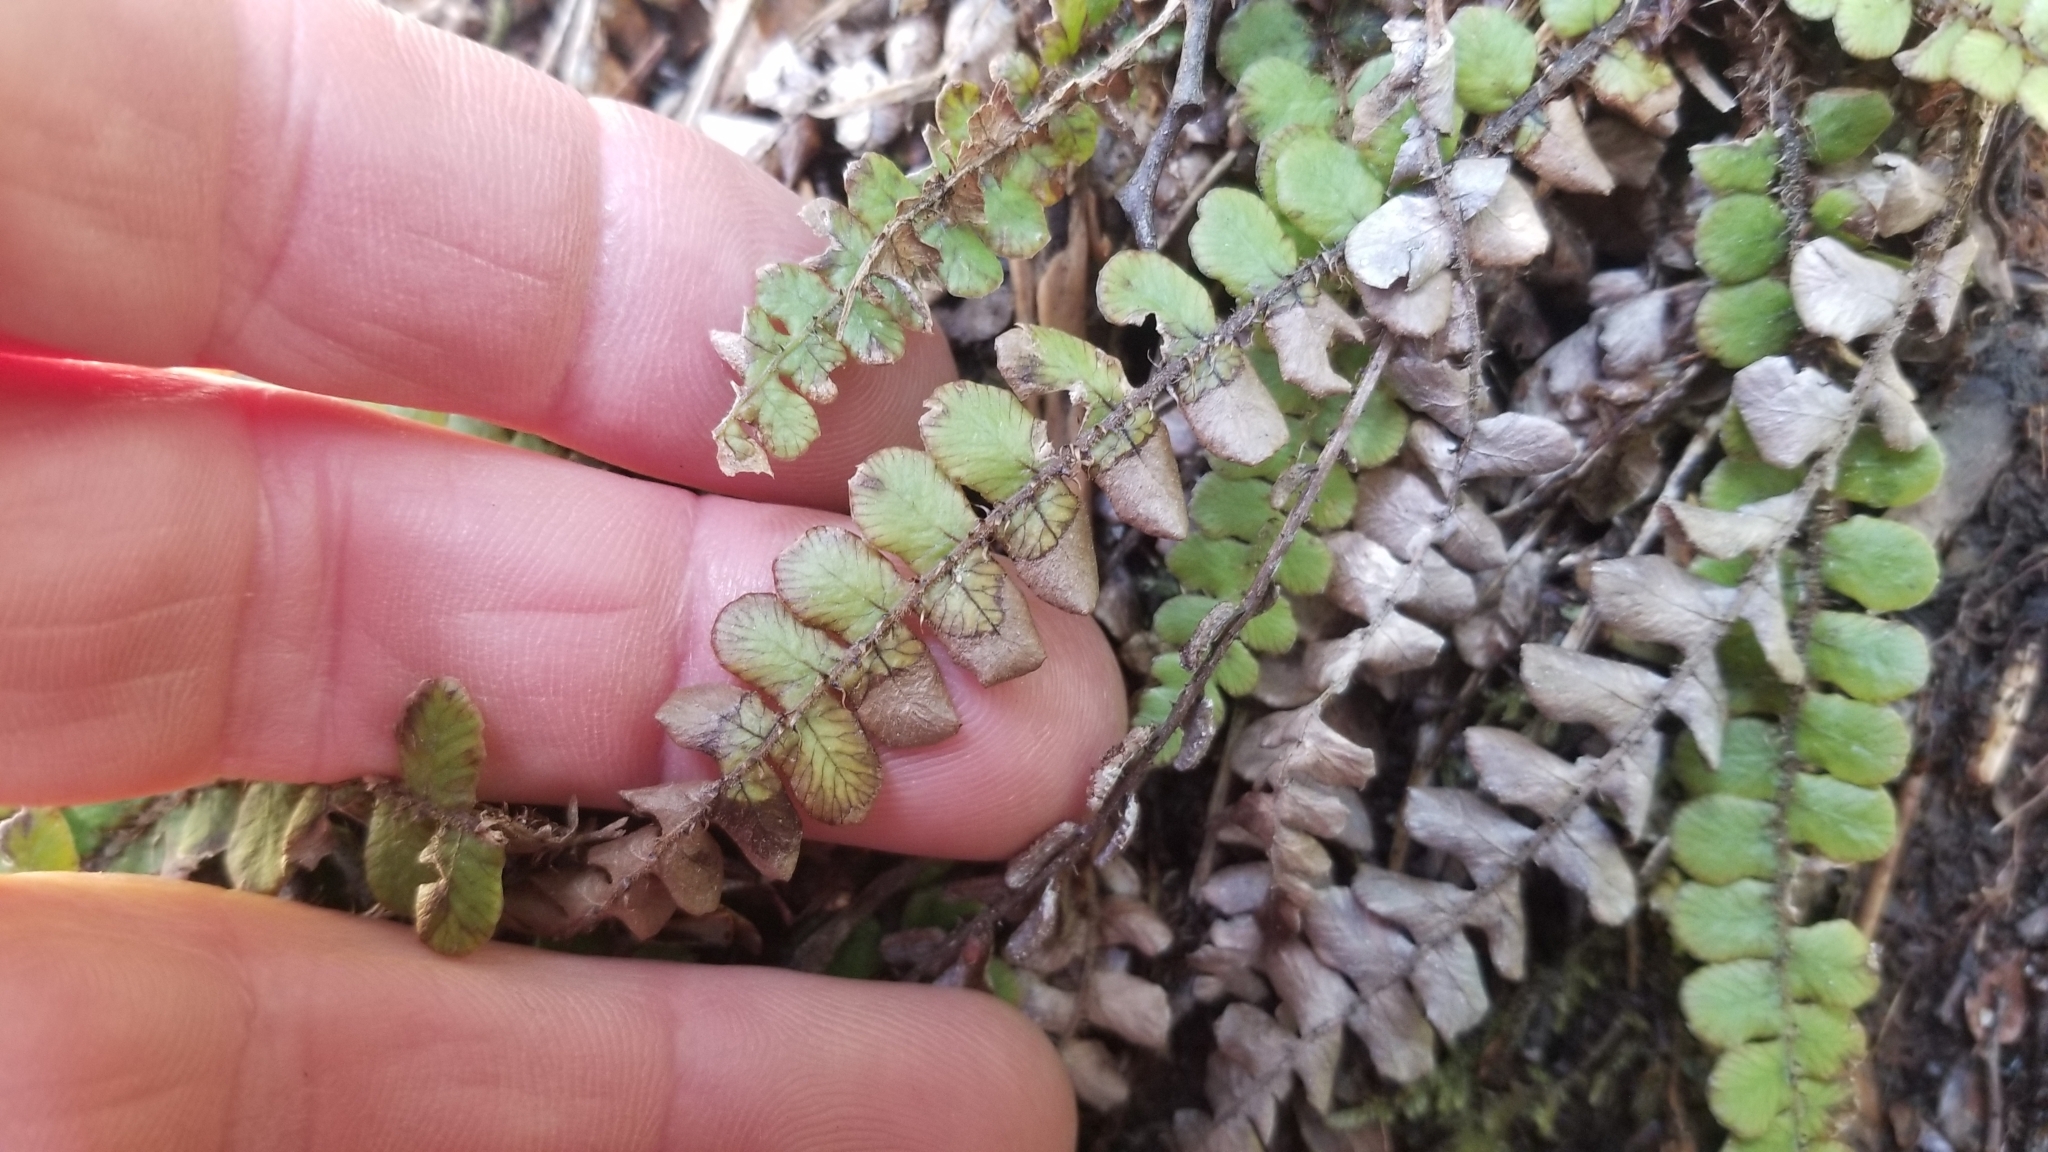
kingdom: Plantae
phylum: Tracheophyta
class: Polypodiopsida
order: Polypodiales
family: Blechnaceae
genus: Cranfillia
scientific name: Cranfillia fluviatilis
